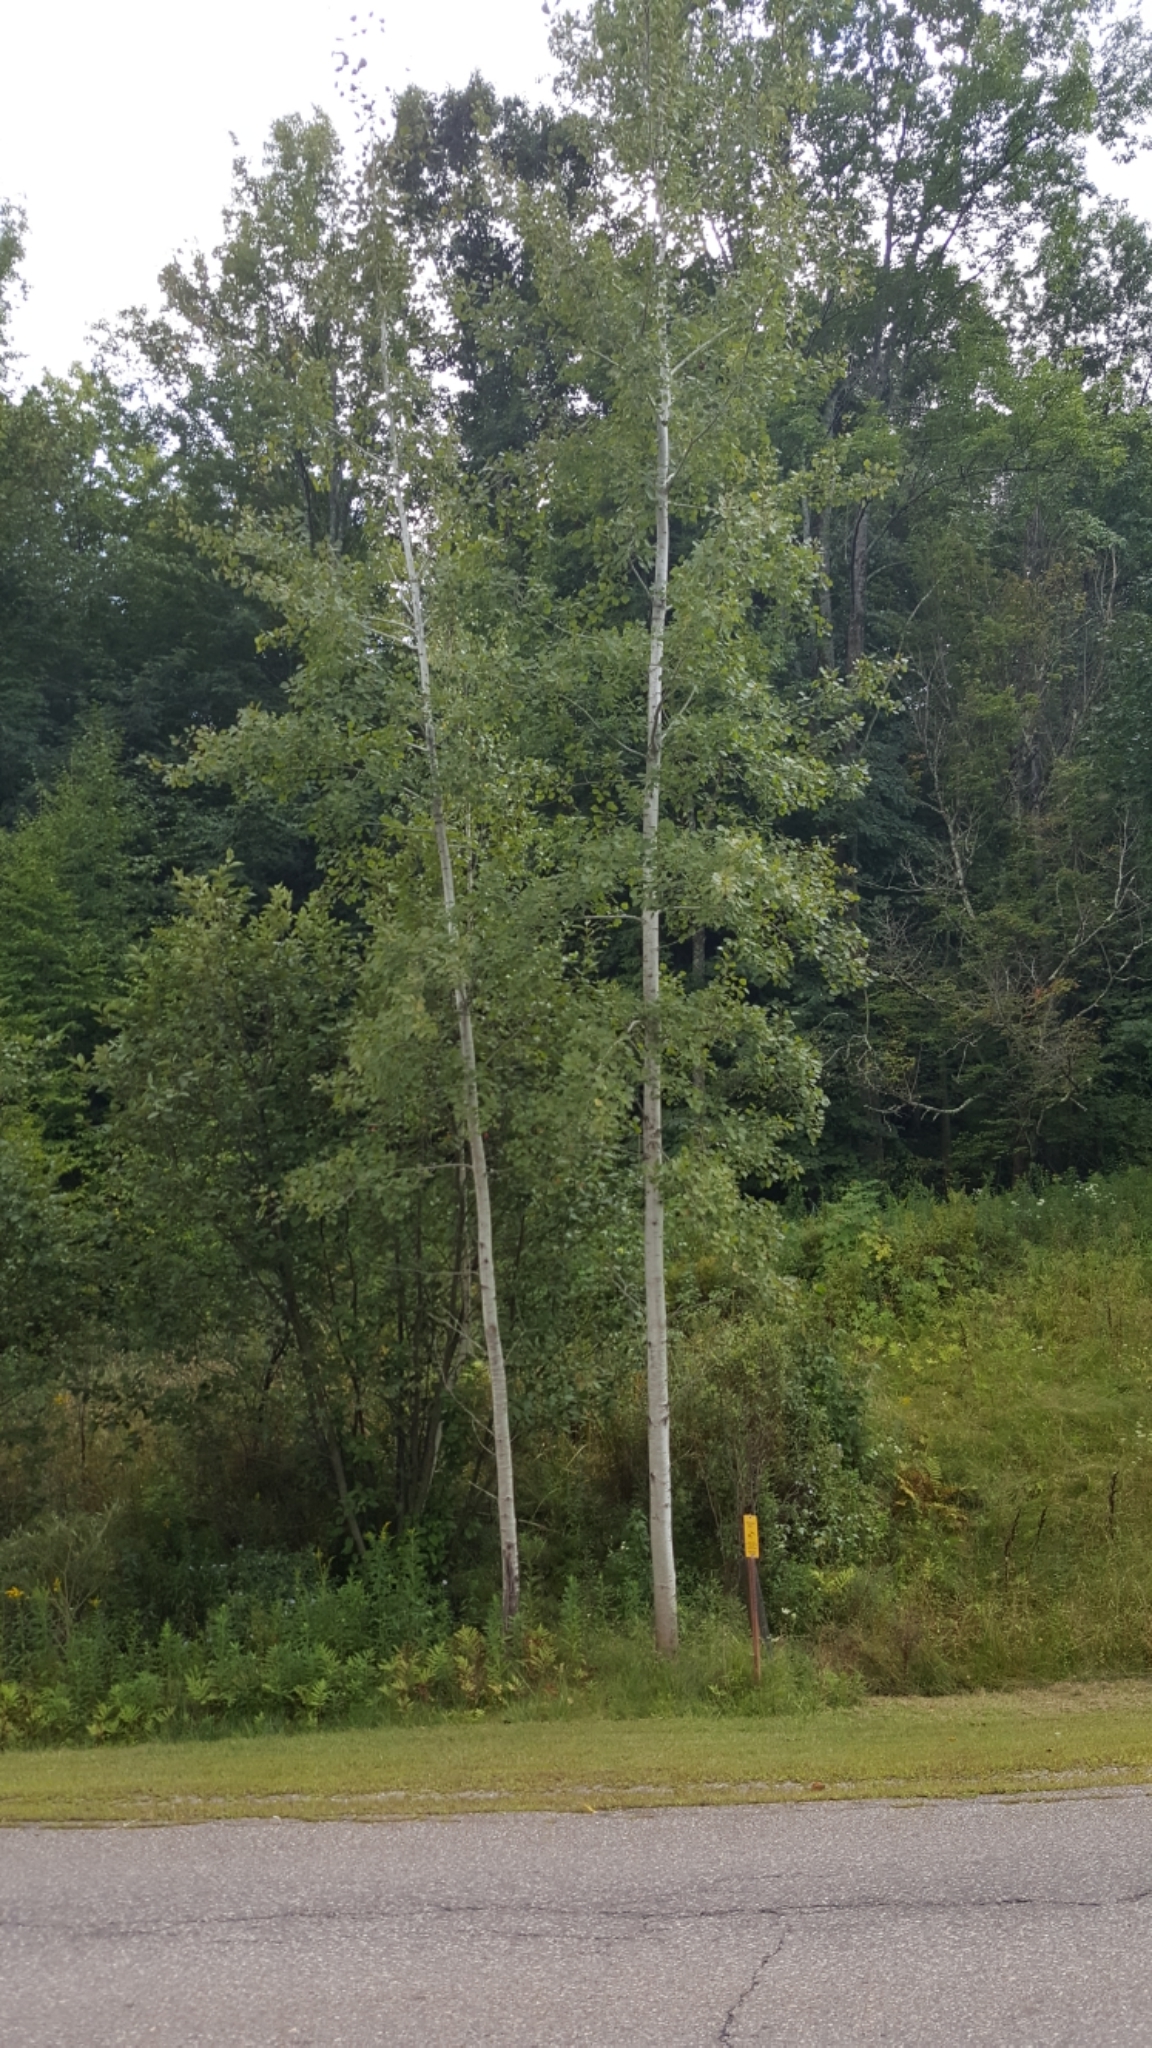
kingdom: Plantae
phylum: Tracheophyta
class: Magnoliopsida
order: Malpighiales
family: Salicaceae
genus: Populus
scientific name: Populus tremuloides
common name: Quaking aspen
